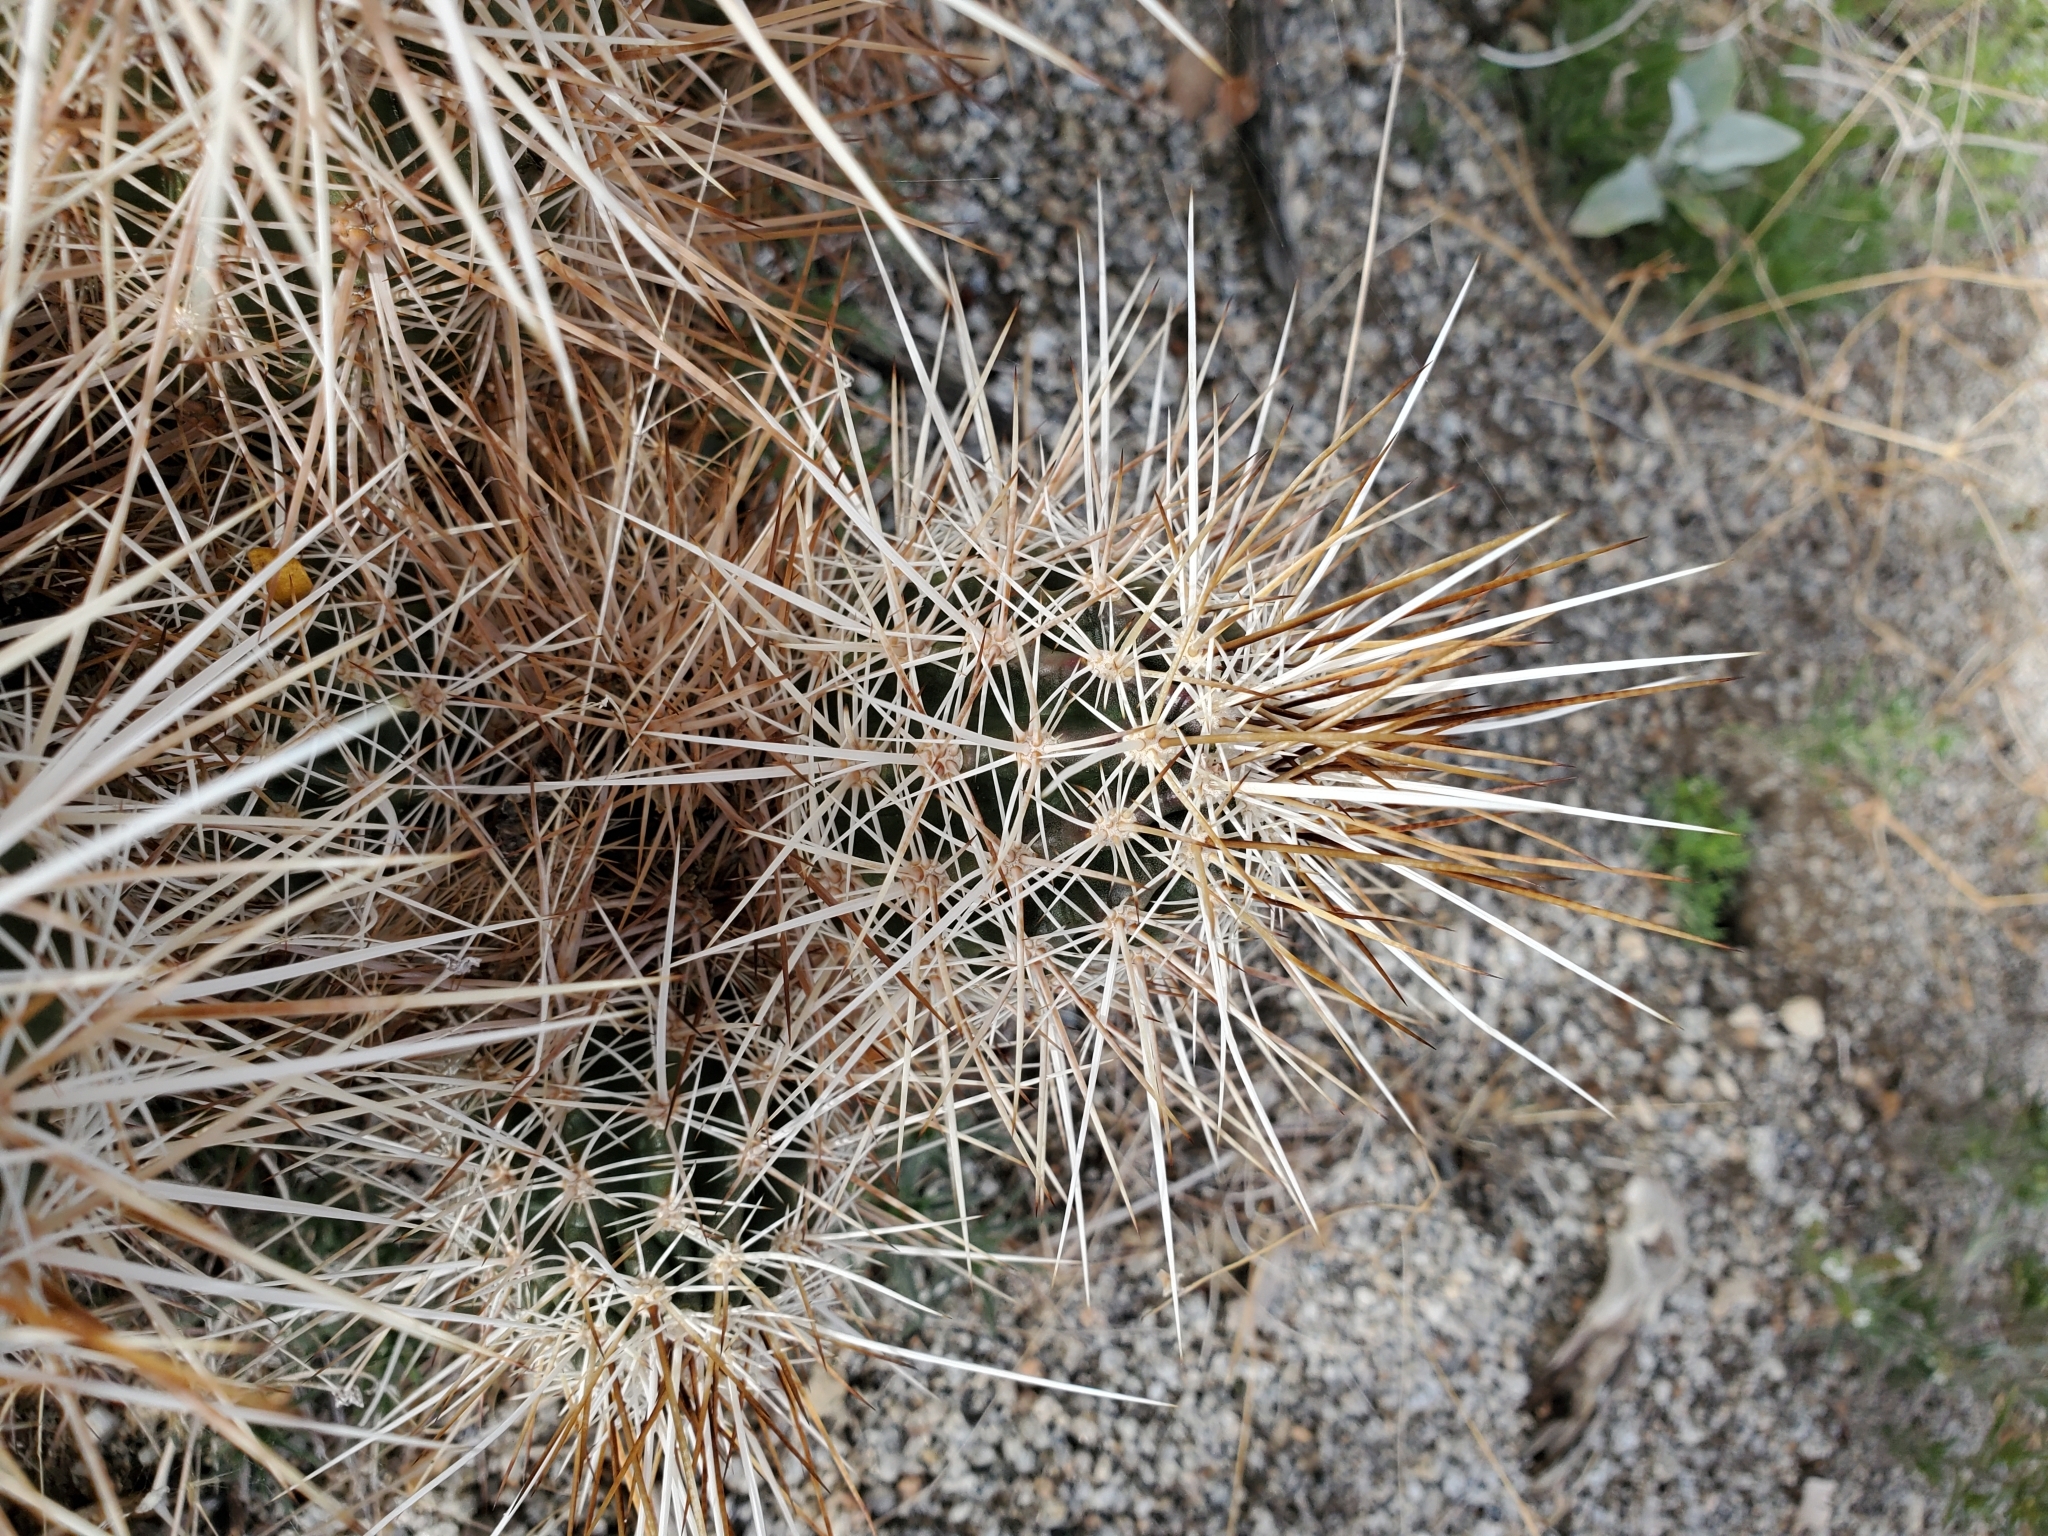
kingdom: Plantae
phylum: Tracheophyta
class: Magnoliopsida
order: Caryophyllales
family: Cactaceae
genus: Echinocereus
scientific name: Echinocereus engelmannii
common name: Engelmann's hedgehog cactus
